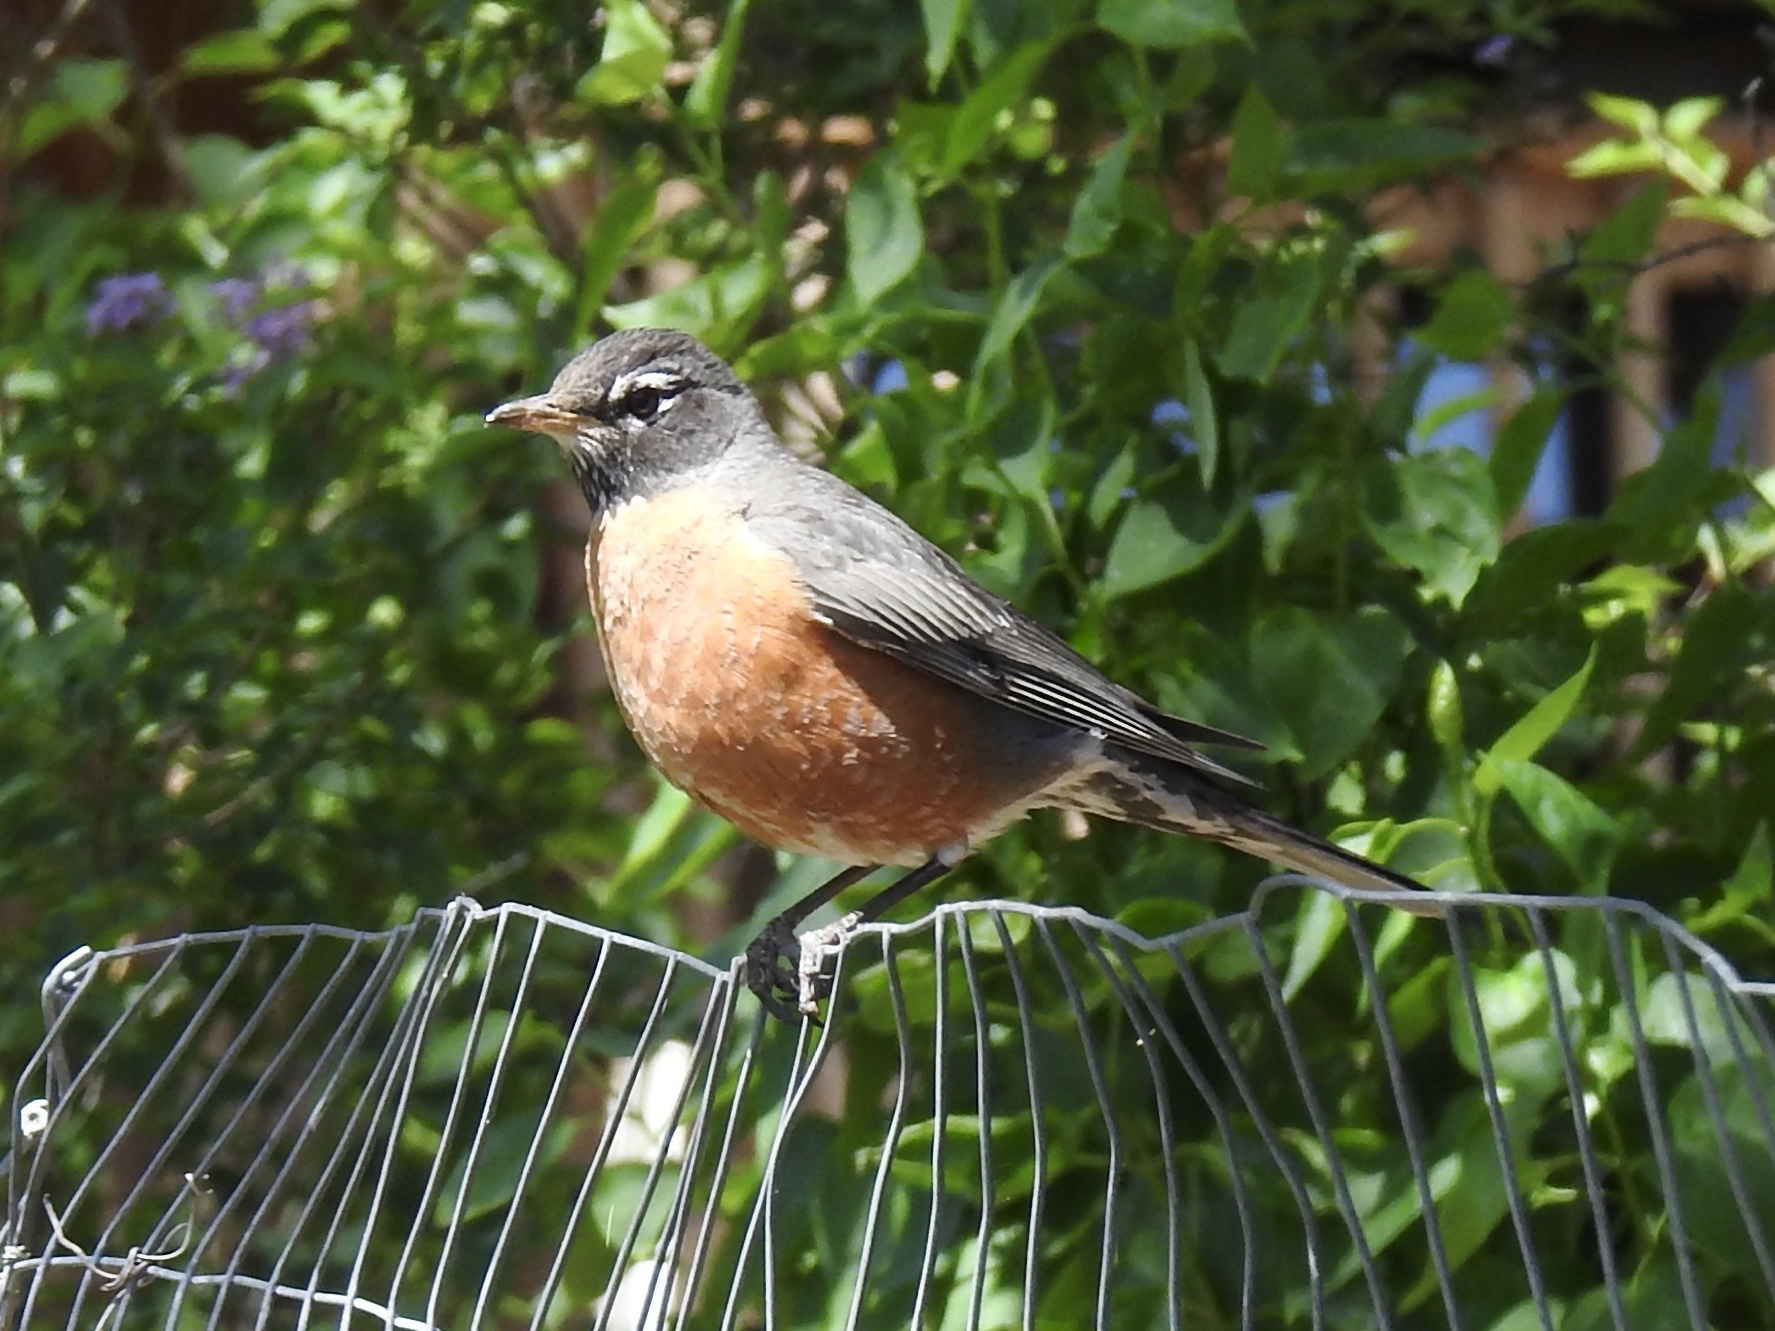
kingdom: Animalia
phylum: Chordata
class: Aves
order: Passeriformes
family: Turdidae
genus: Turdus
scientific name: Turdus migratorius
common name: American robin
